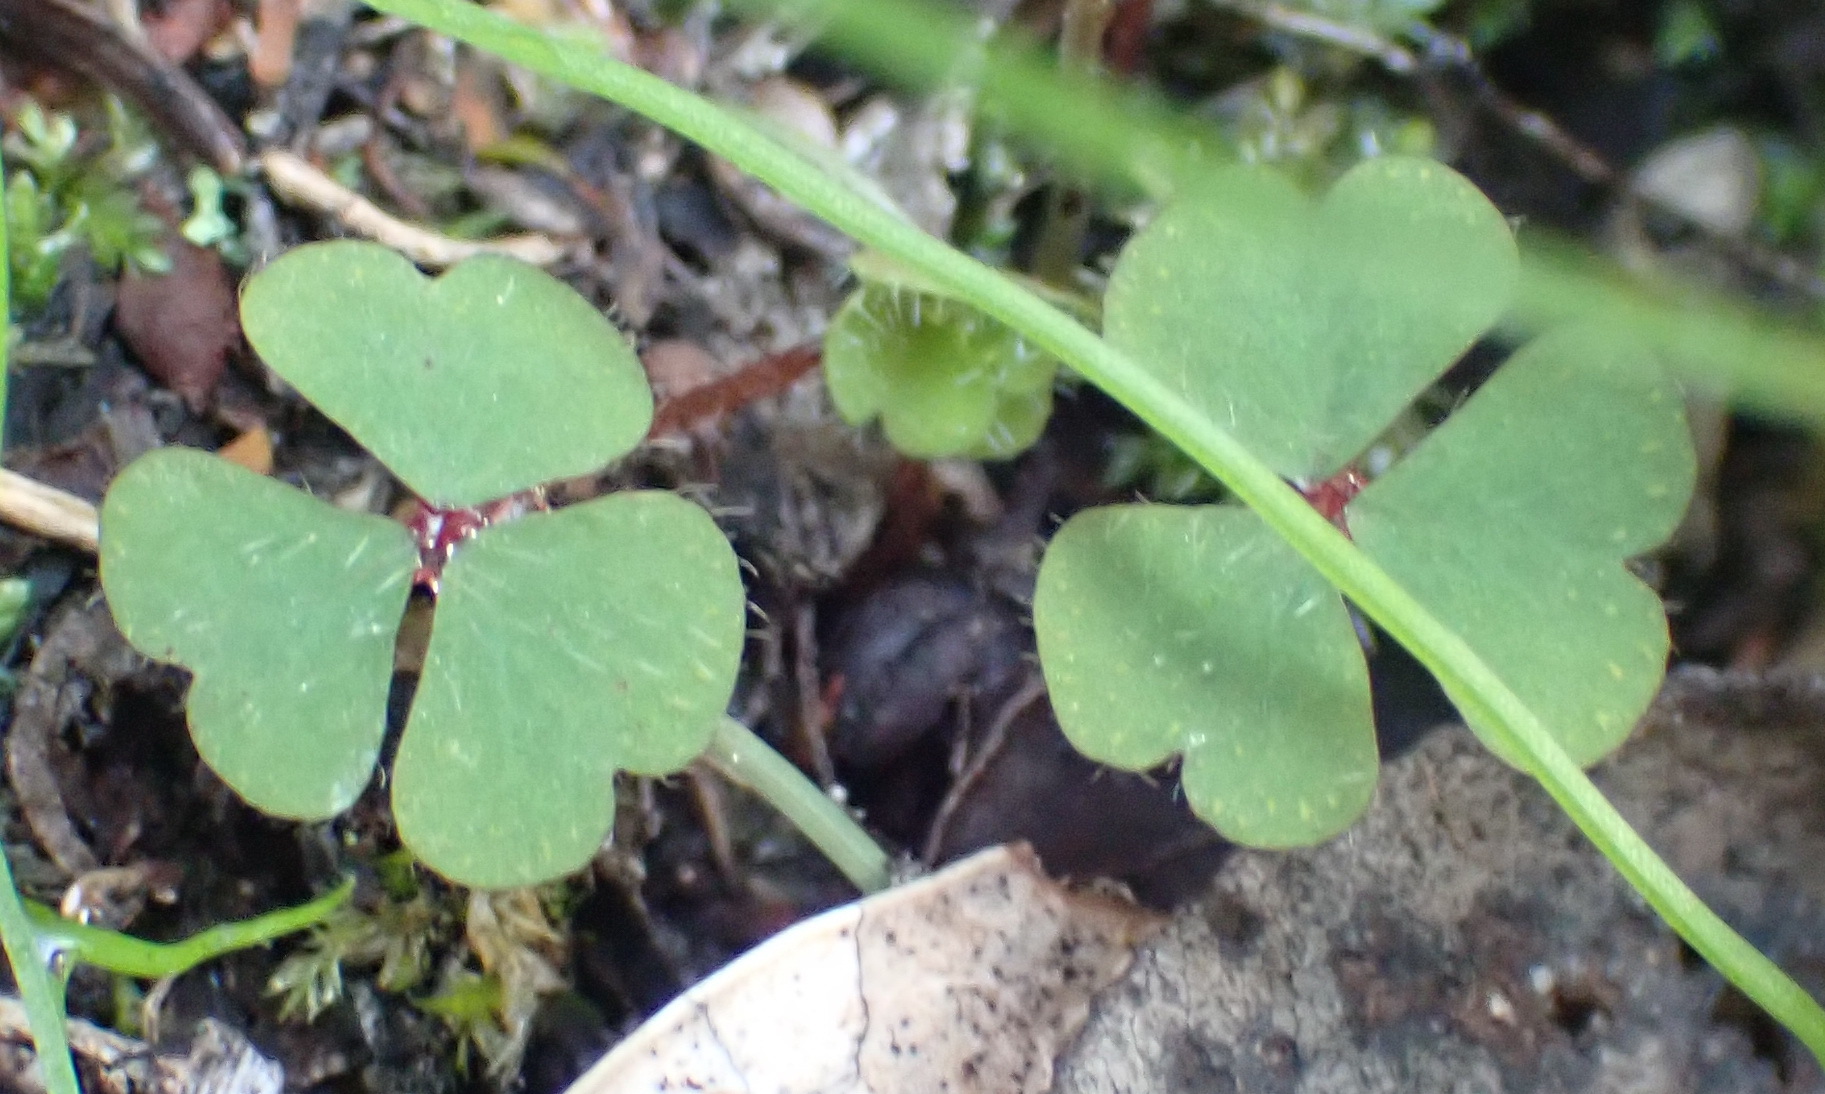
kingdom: Plantae
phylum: Tracheophyta
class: Magnoliopsida
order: Oxalidales
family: Oxalidaceae
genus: Oxalis
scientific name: Oxalis psilopoda
